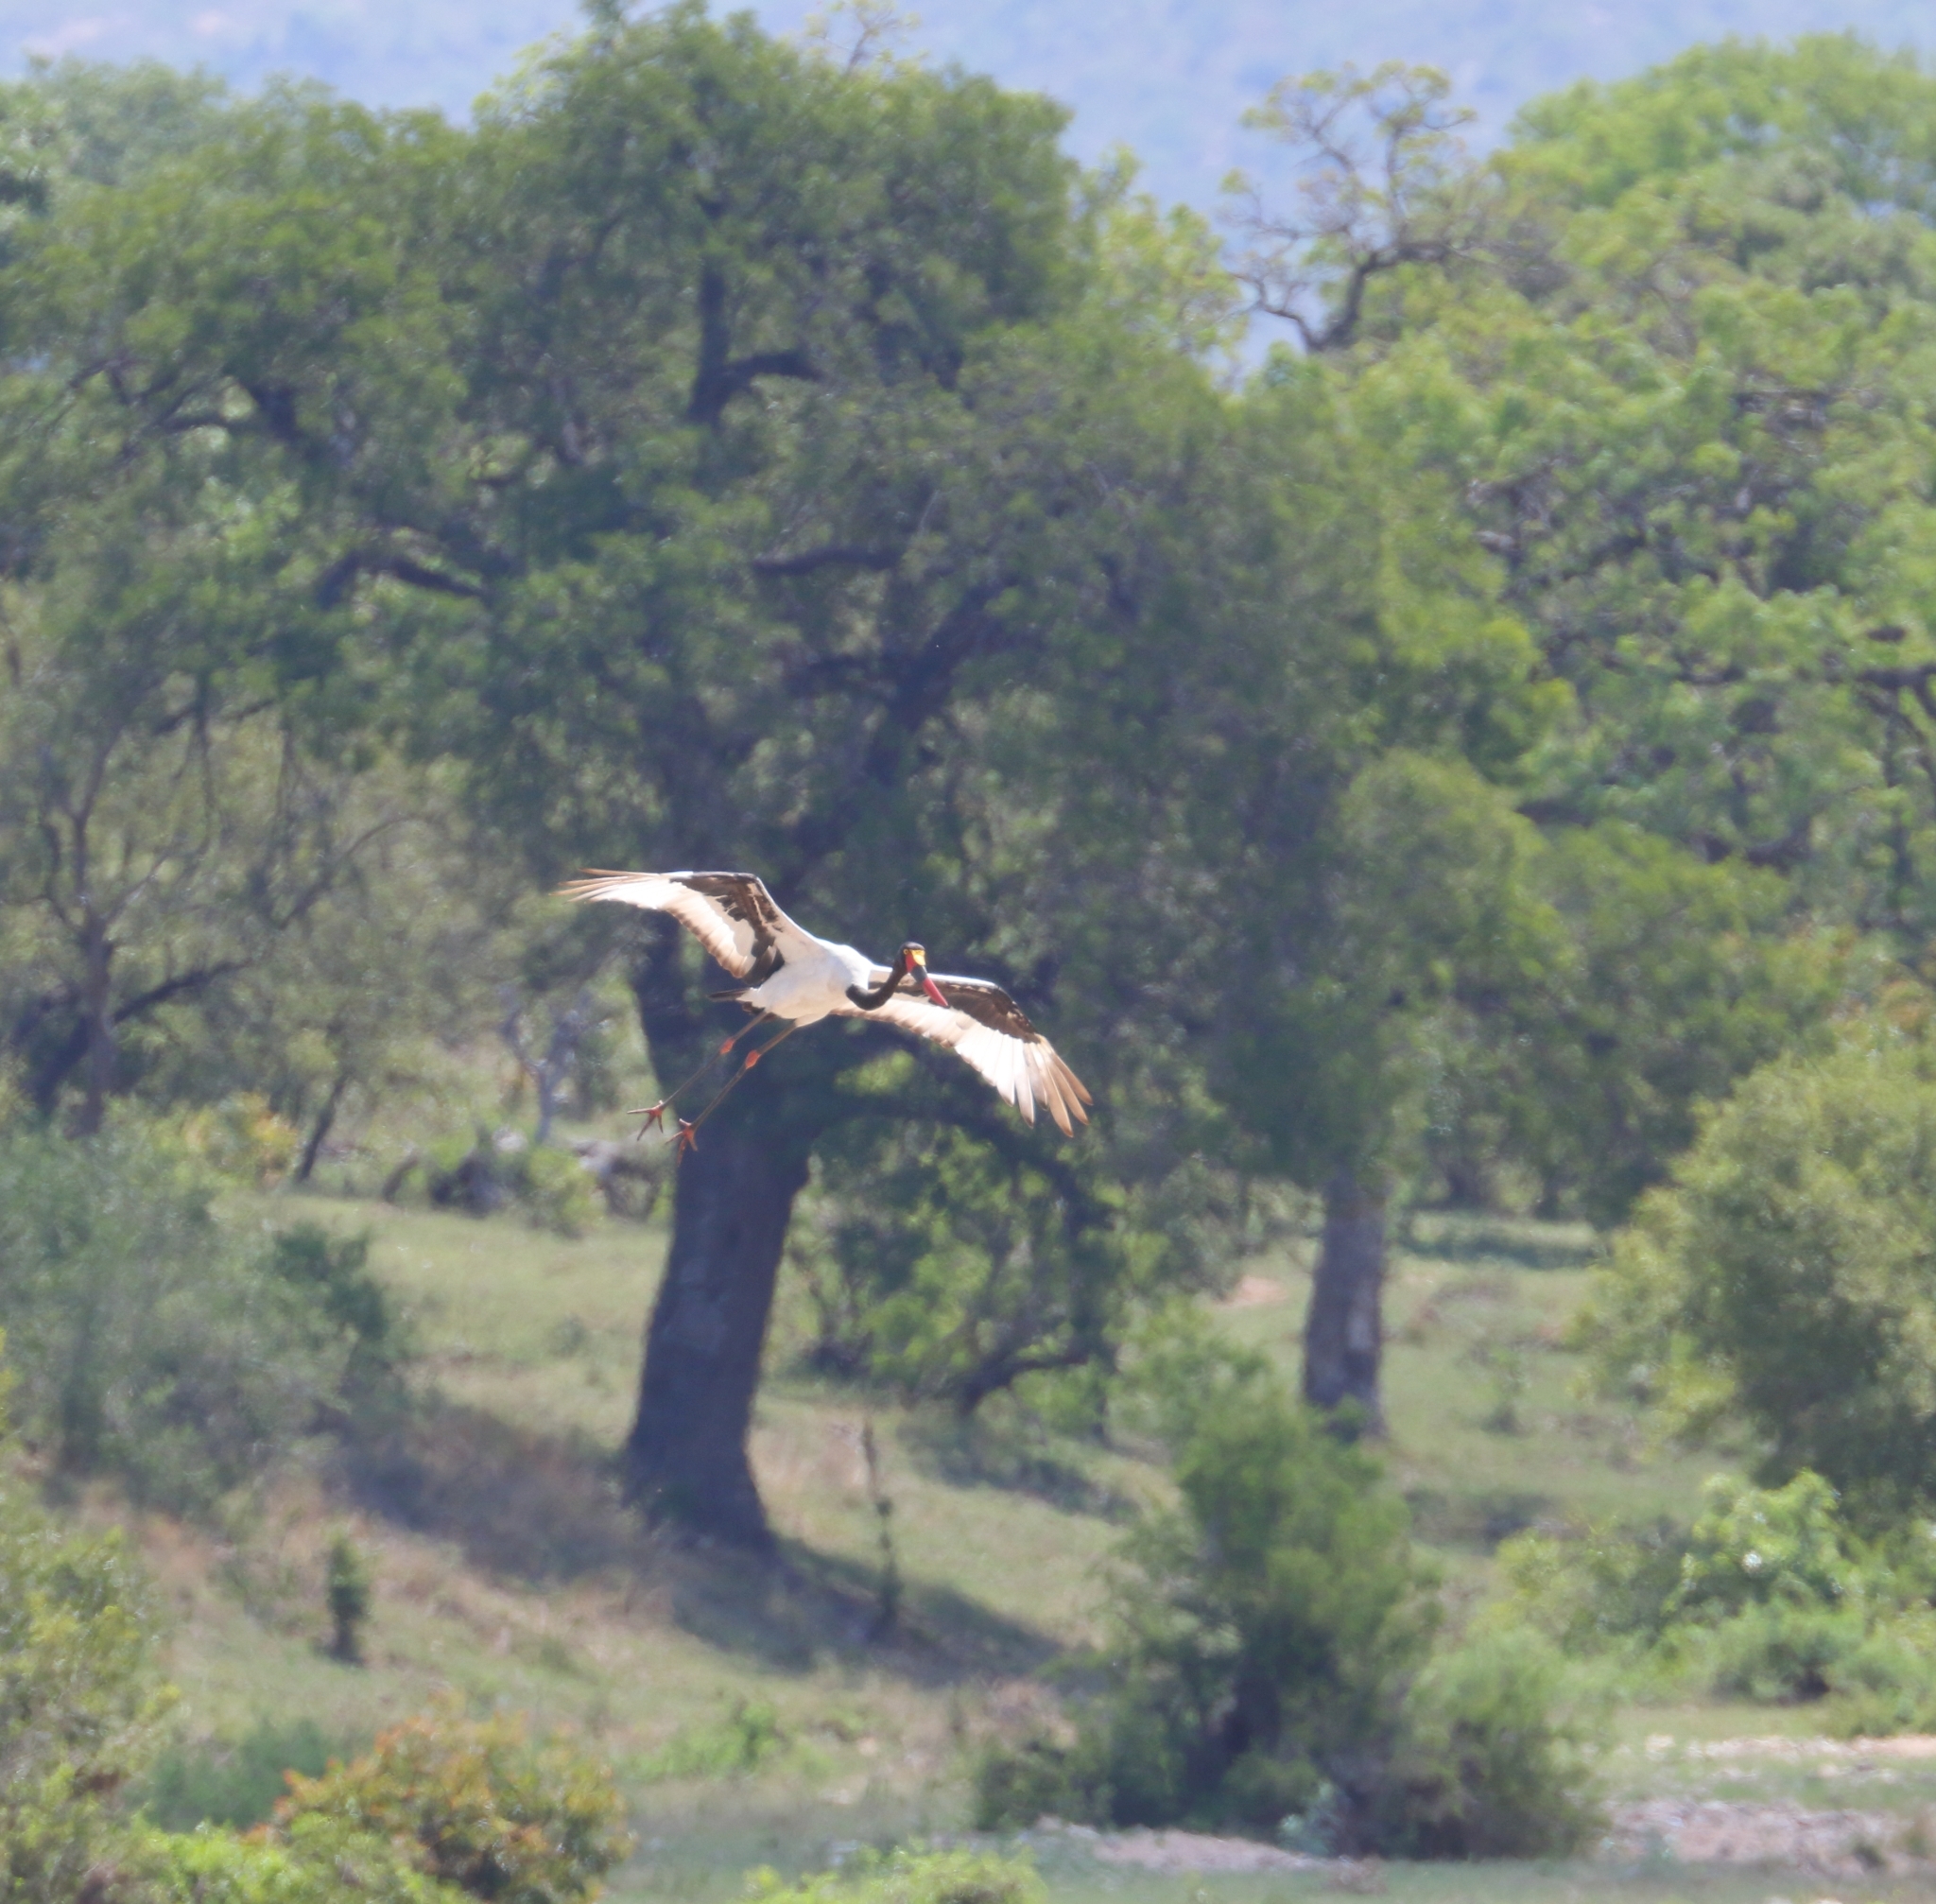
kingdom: Animalia
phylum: Chordata
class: Aves
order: Ciconiiformes
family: Ciconiidae
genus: Ephippiorhynchus
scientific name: Ephippiorhynchus senegalensis
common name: Saddle-billed stork
